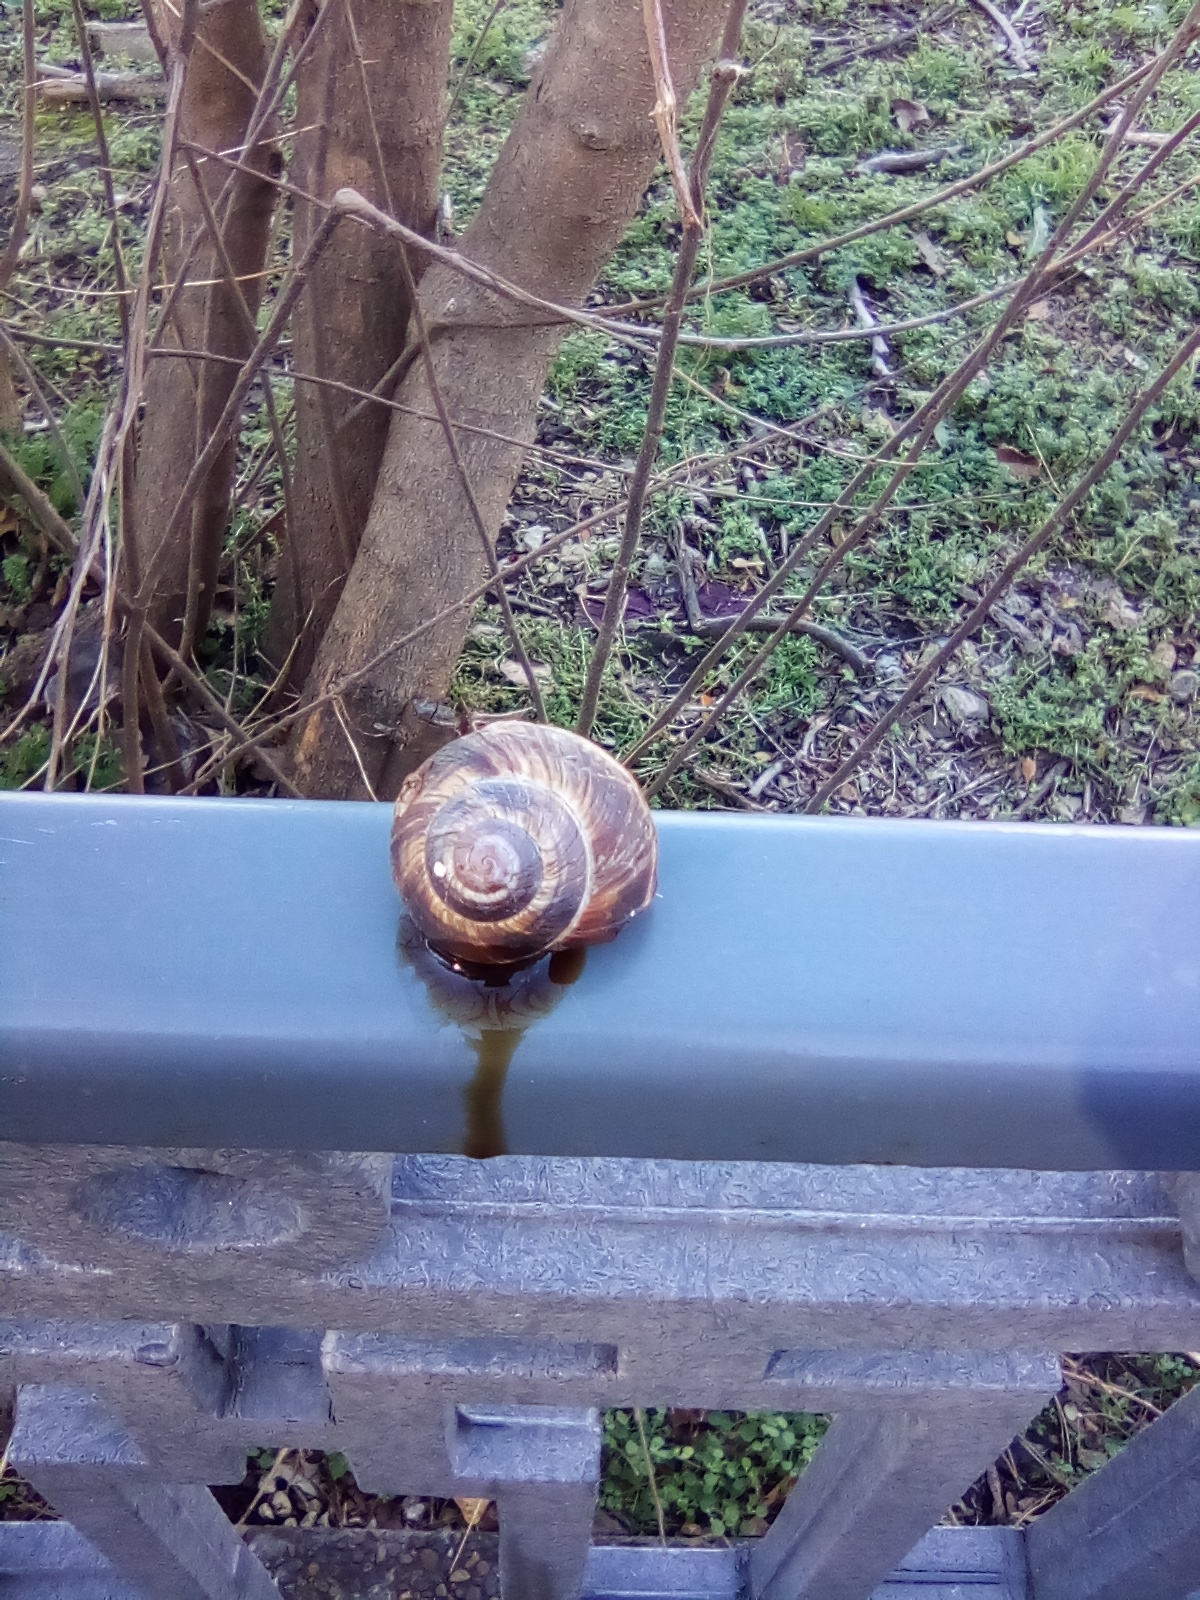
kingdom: Animalia
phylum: Mollusca
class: Gastropoda
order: Stylommatophora
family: Helicidae
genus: Helix
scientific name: Helix lucorum
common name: Turkish snail
